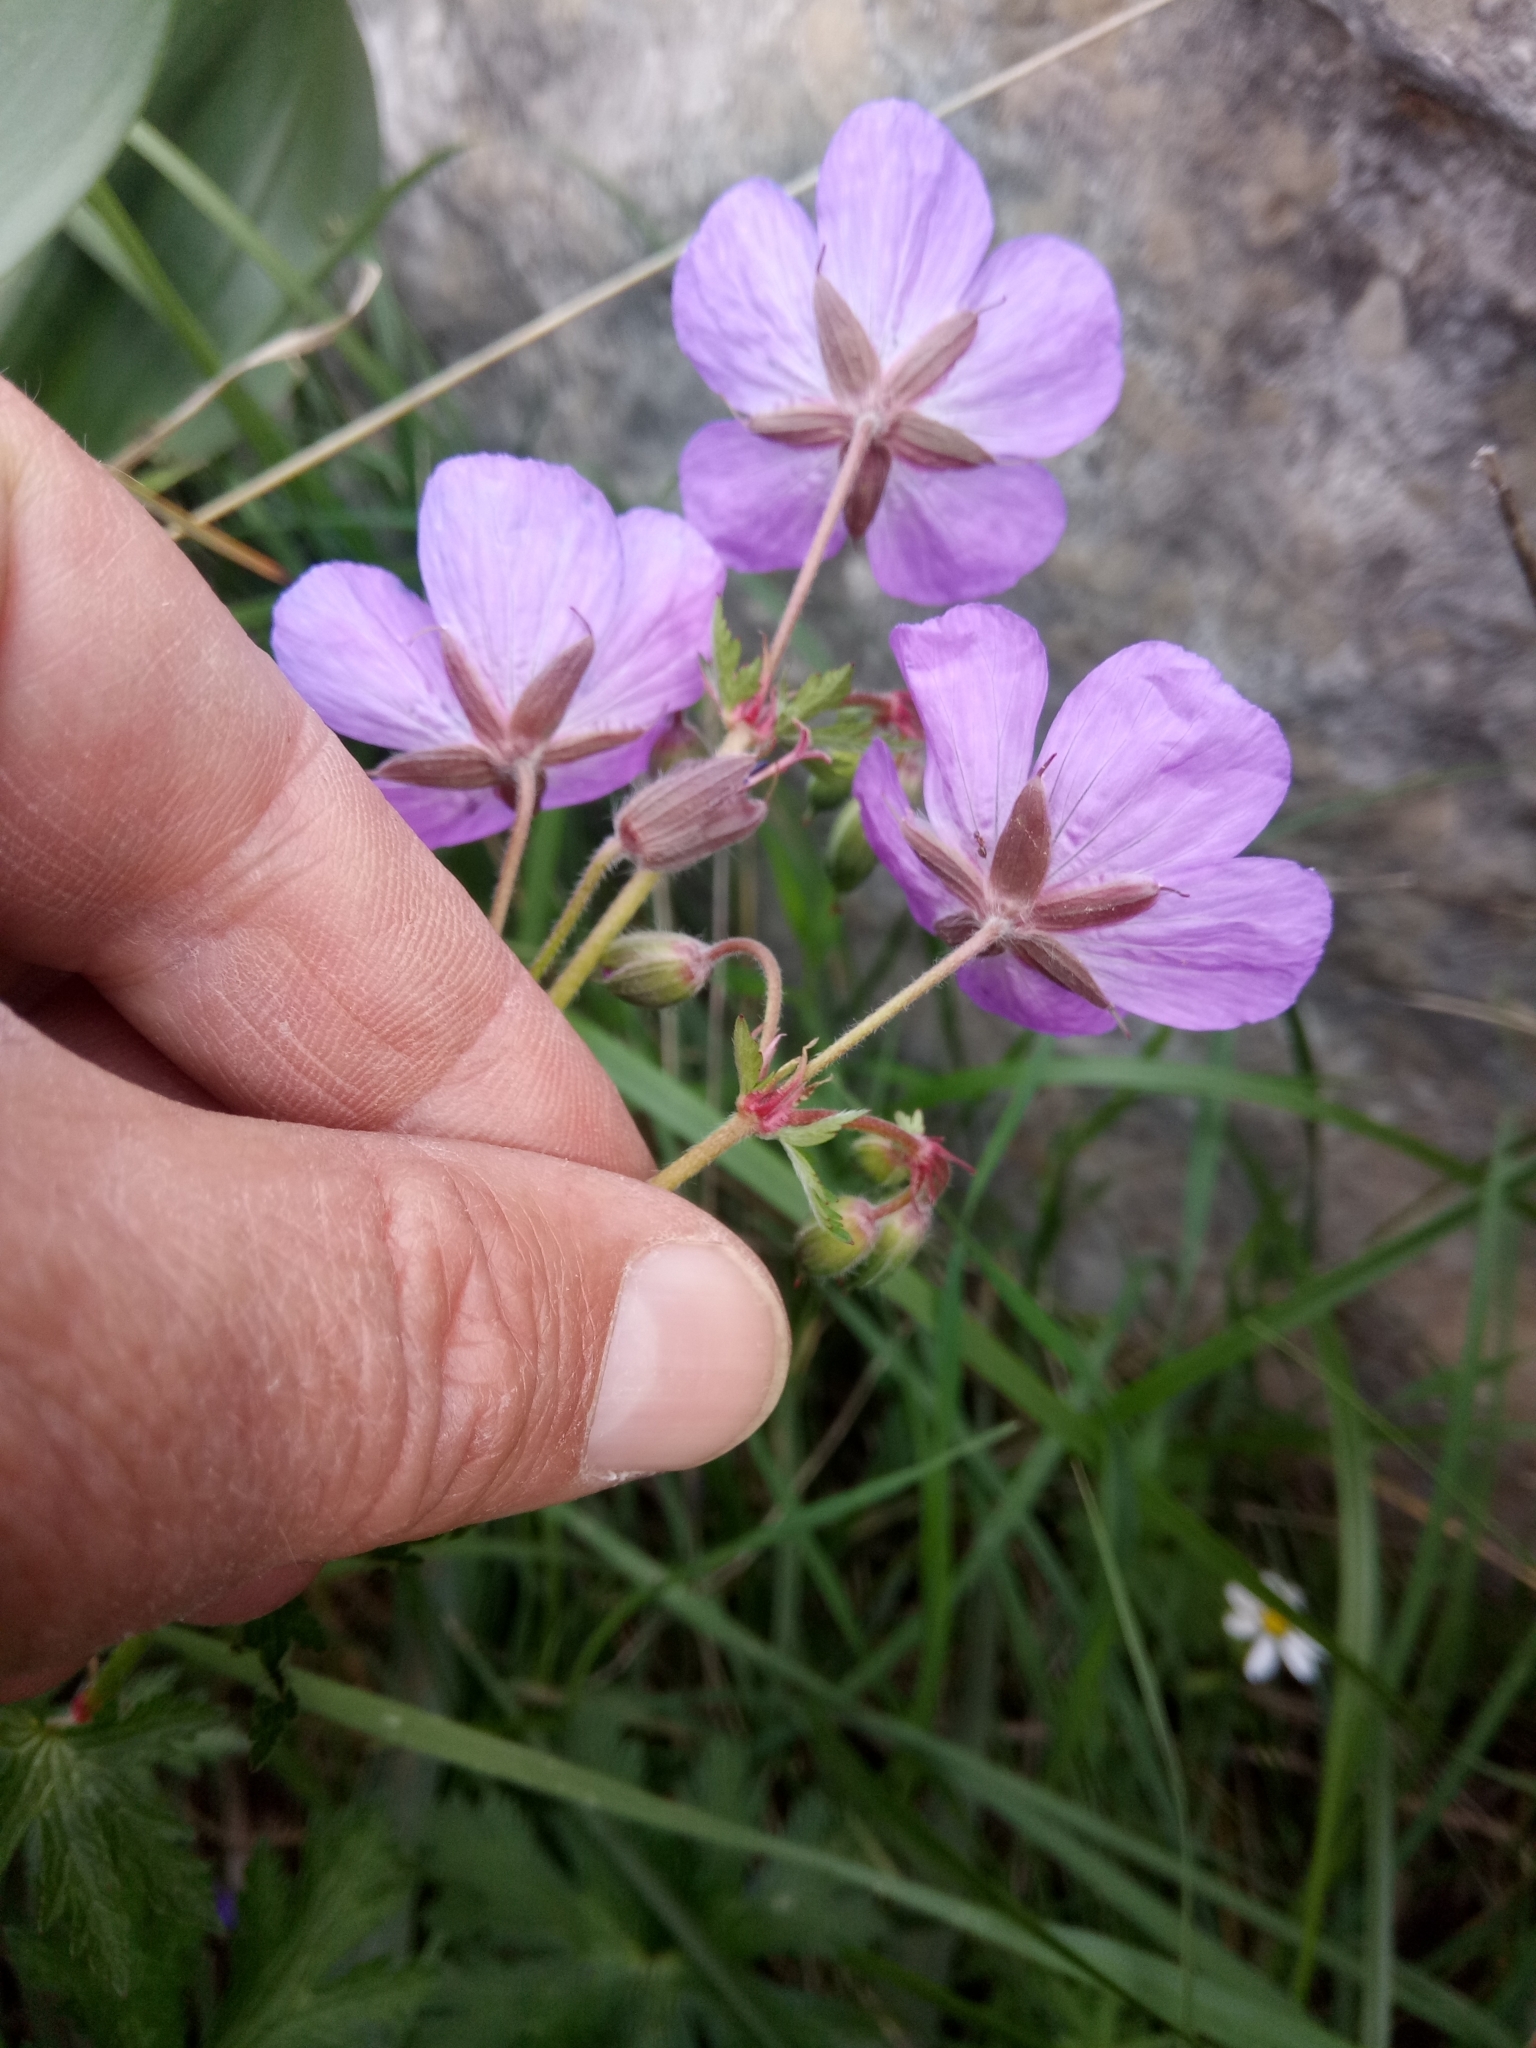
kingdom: Plantae
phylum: Tracheophyta
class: Magnoliopsida
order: Geraniales
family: Geraniaceae
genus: Geranium
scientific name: Geranium atlanticum
